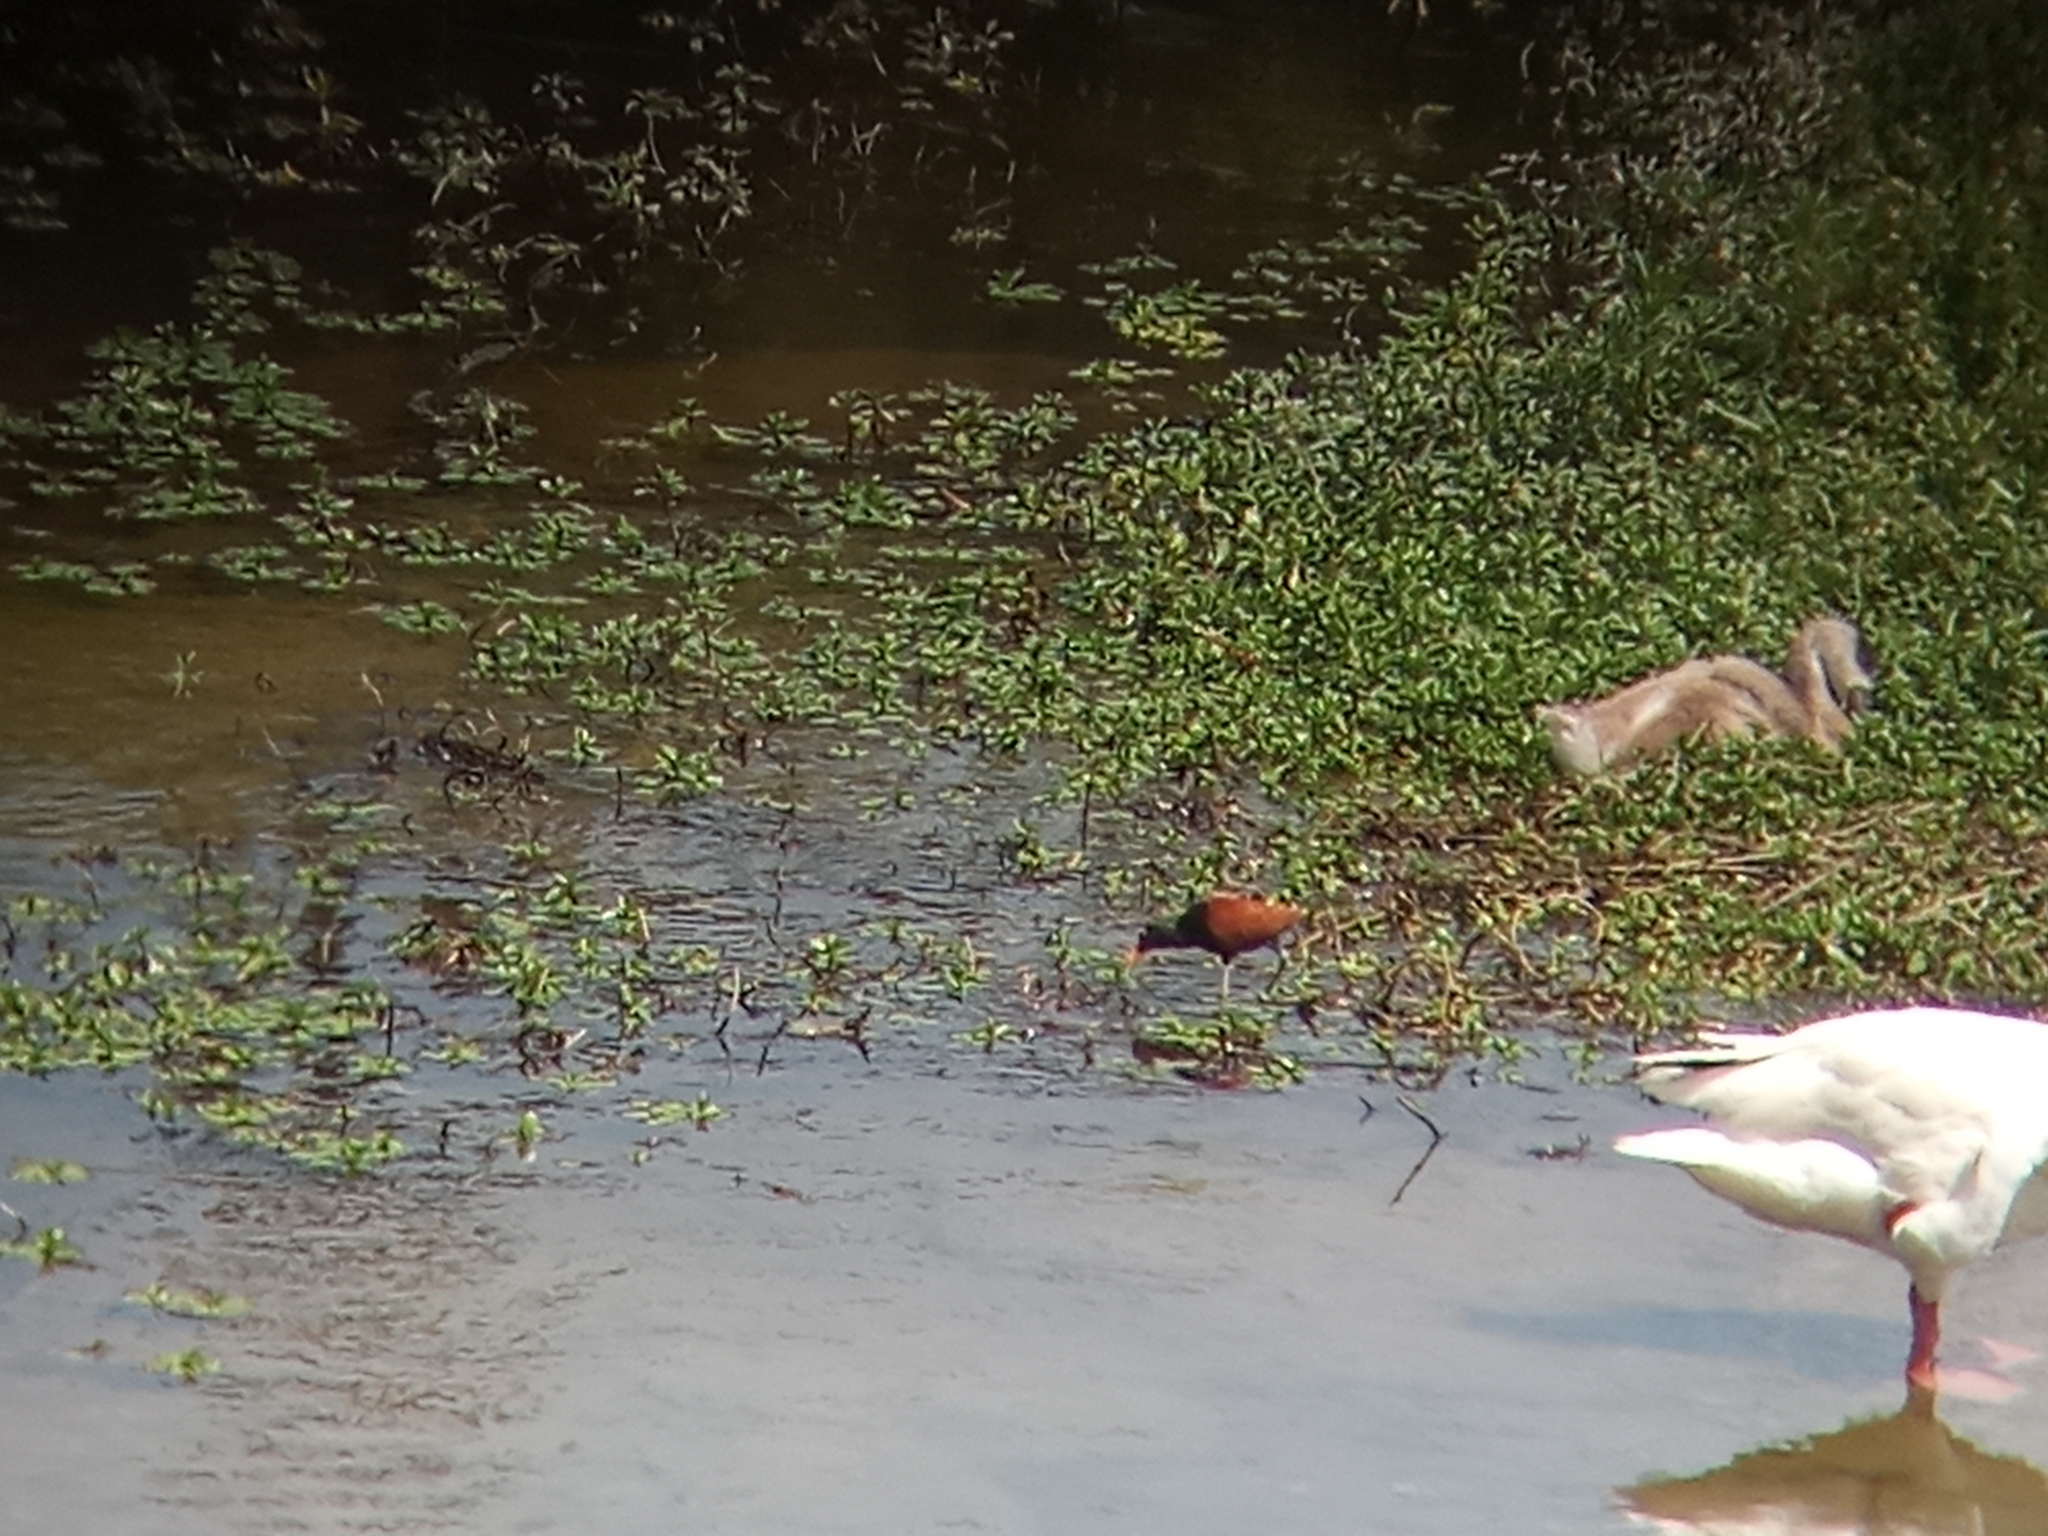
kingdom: Animalia
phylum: Chordata
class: Aves
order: Charadriiformes
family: Jacanidae
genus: Jacana
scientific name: Jacana jacana
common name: Wattled jacana
